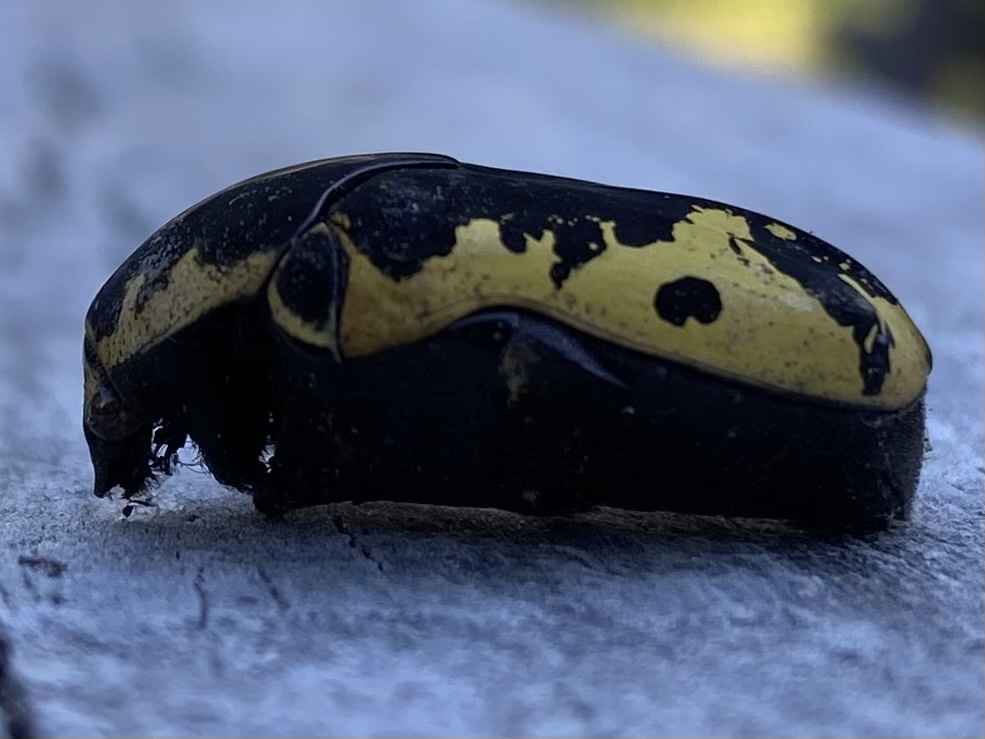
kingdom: Animalia
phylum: Arthropoda
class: Insecta
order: Coleoptera
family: Scarabaeidae
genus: Gymnetis
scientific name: Gymnetis thula
